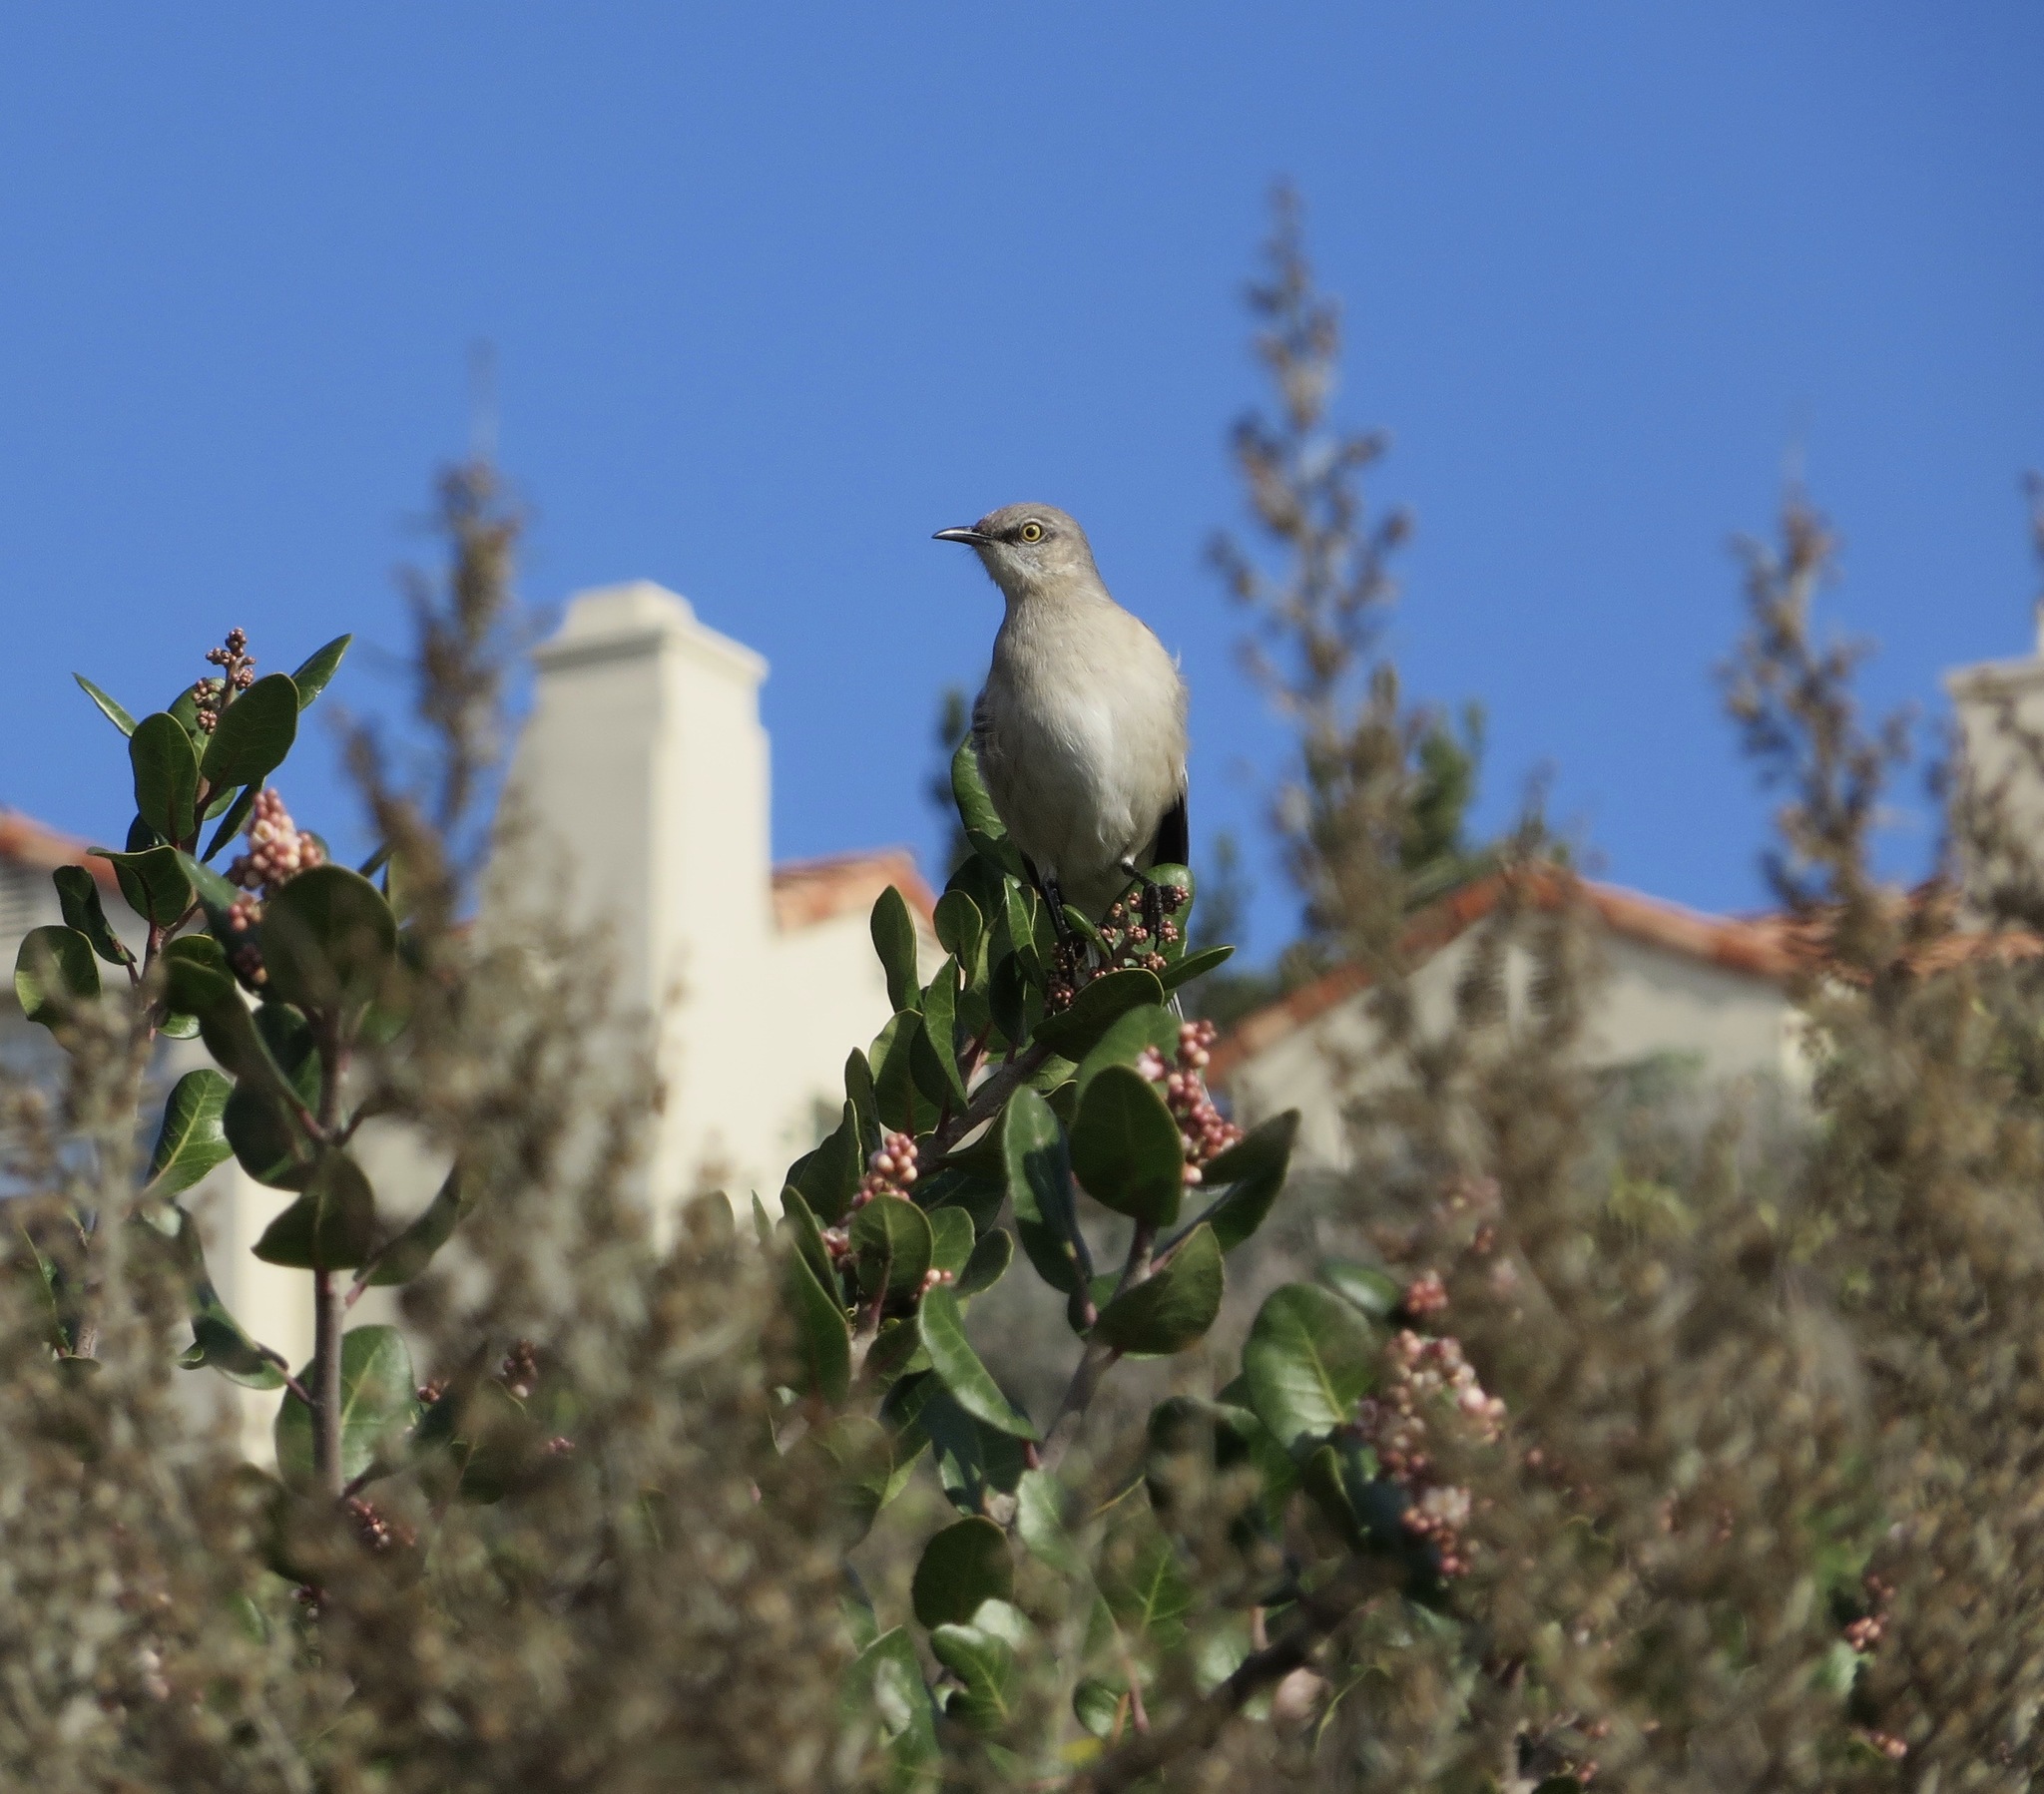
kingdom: Animalia
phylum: Chordata
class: Aves
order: Passeriformes
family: Mimidae
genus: Mimus
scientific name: Mimus polyglottos
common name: Northern mockingbird
